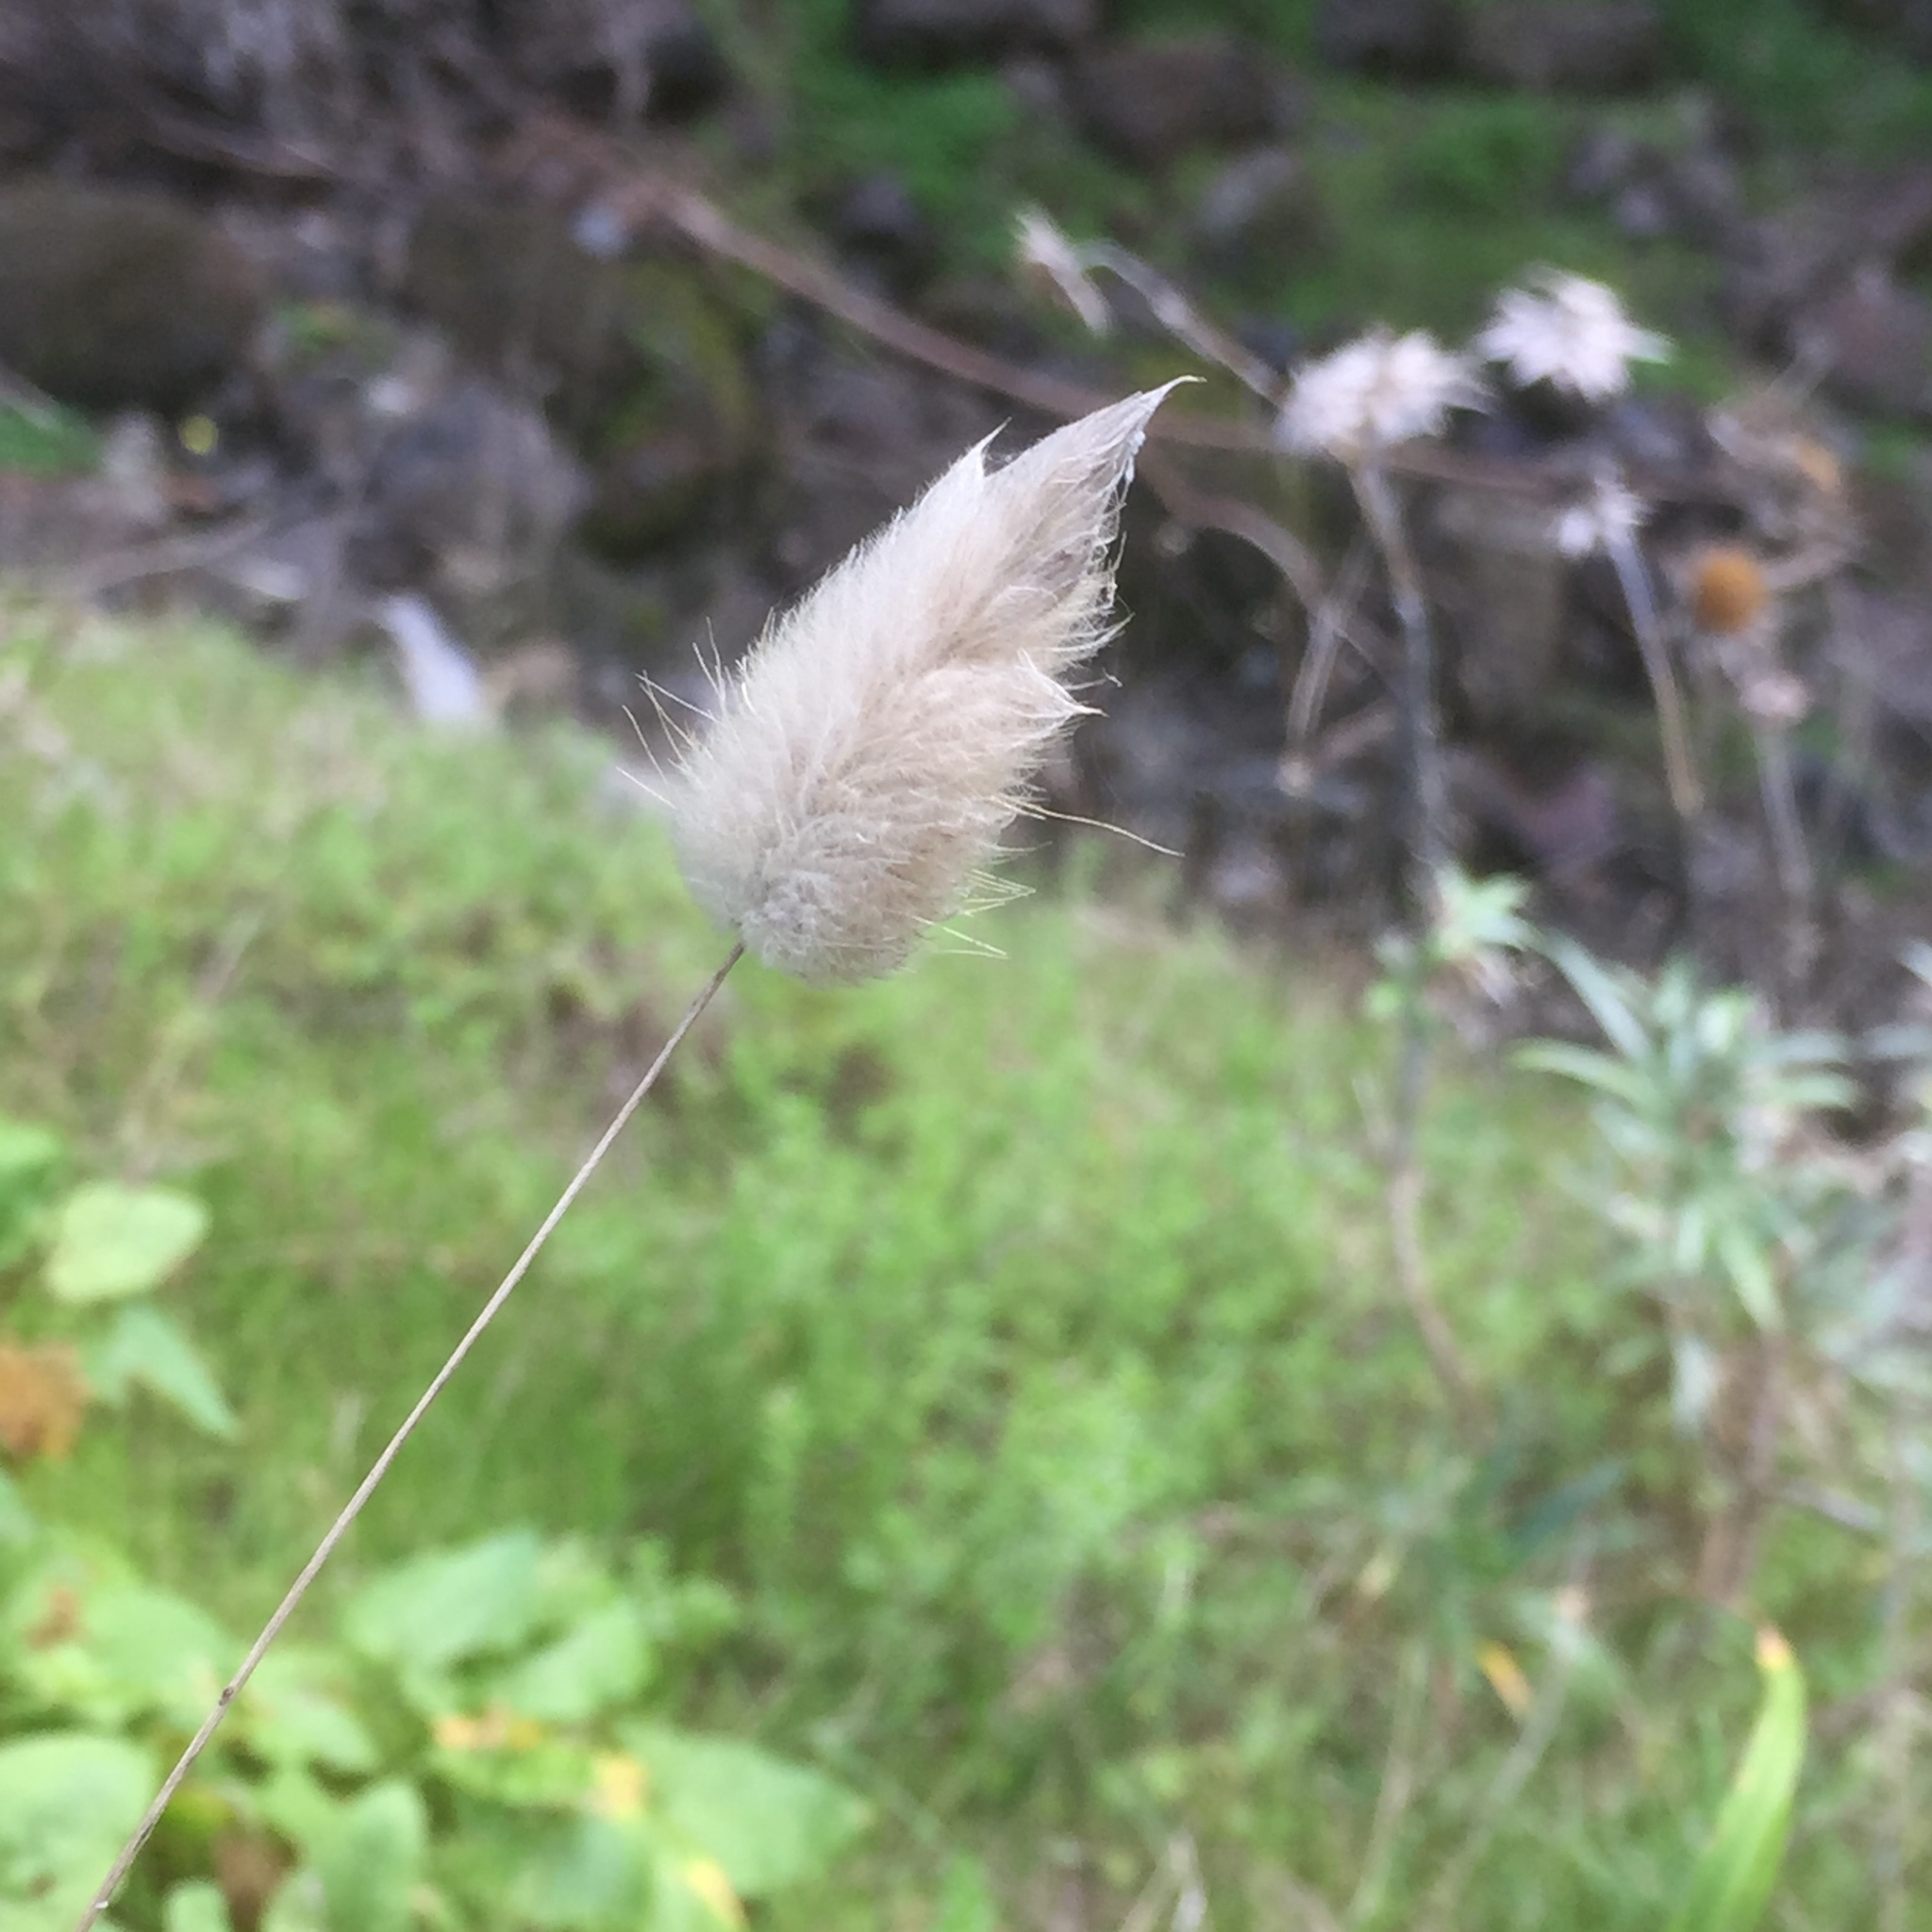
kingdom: Plantae
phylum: Tracheophyta
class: Liliopsida
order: Poales
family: Poaceae
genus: Lagurus
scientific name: Lagurus ovatus
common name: Hare's-tail
